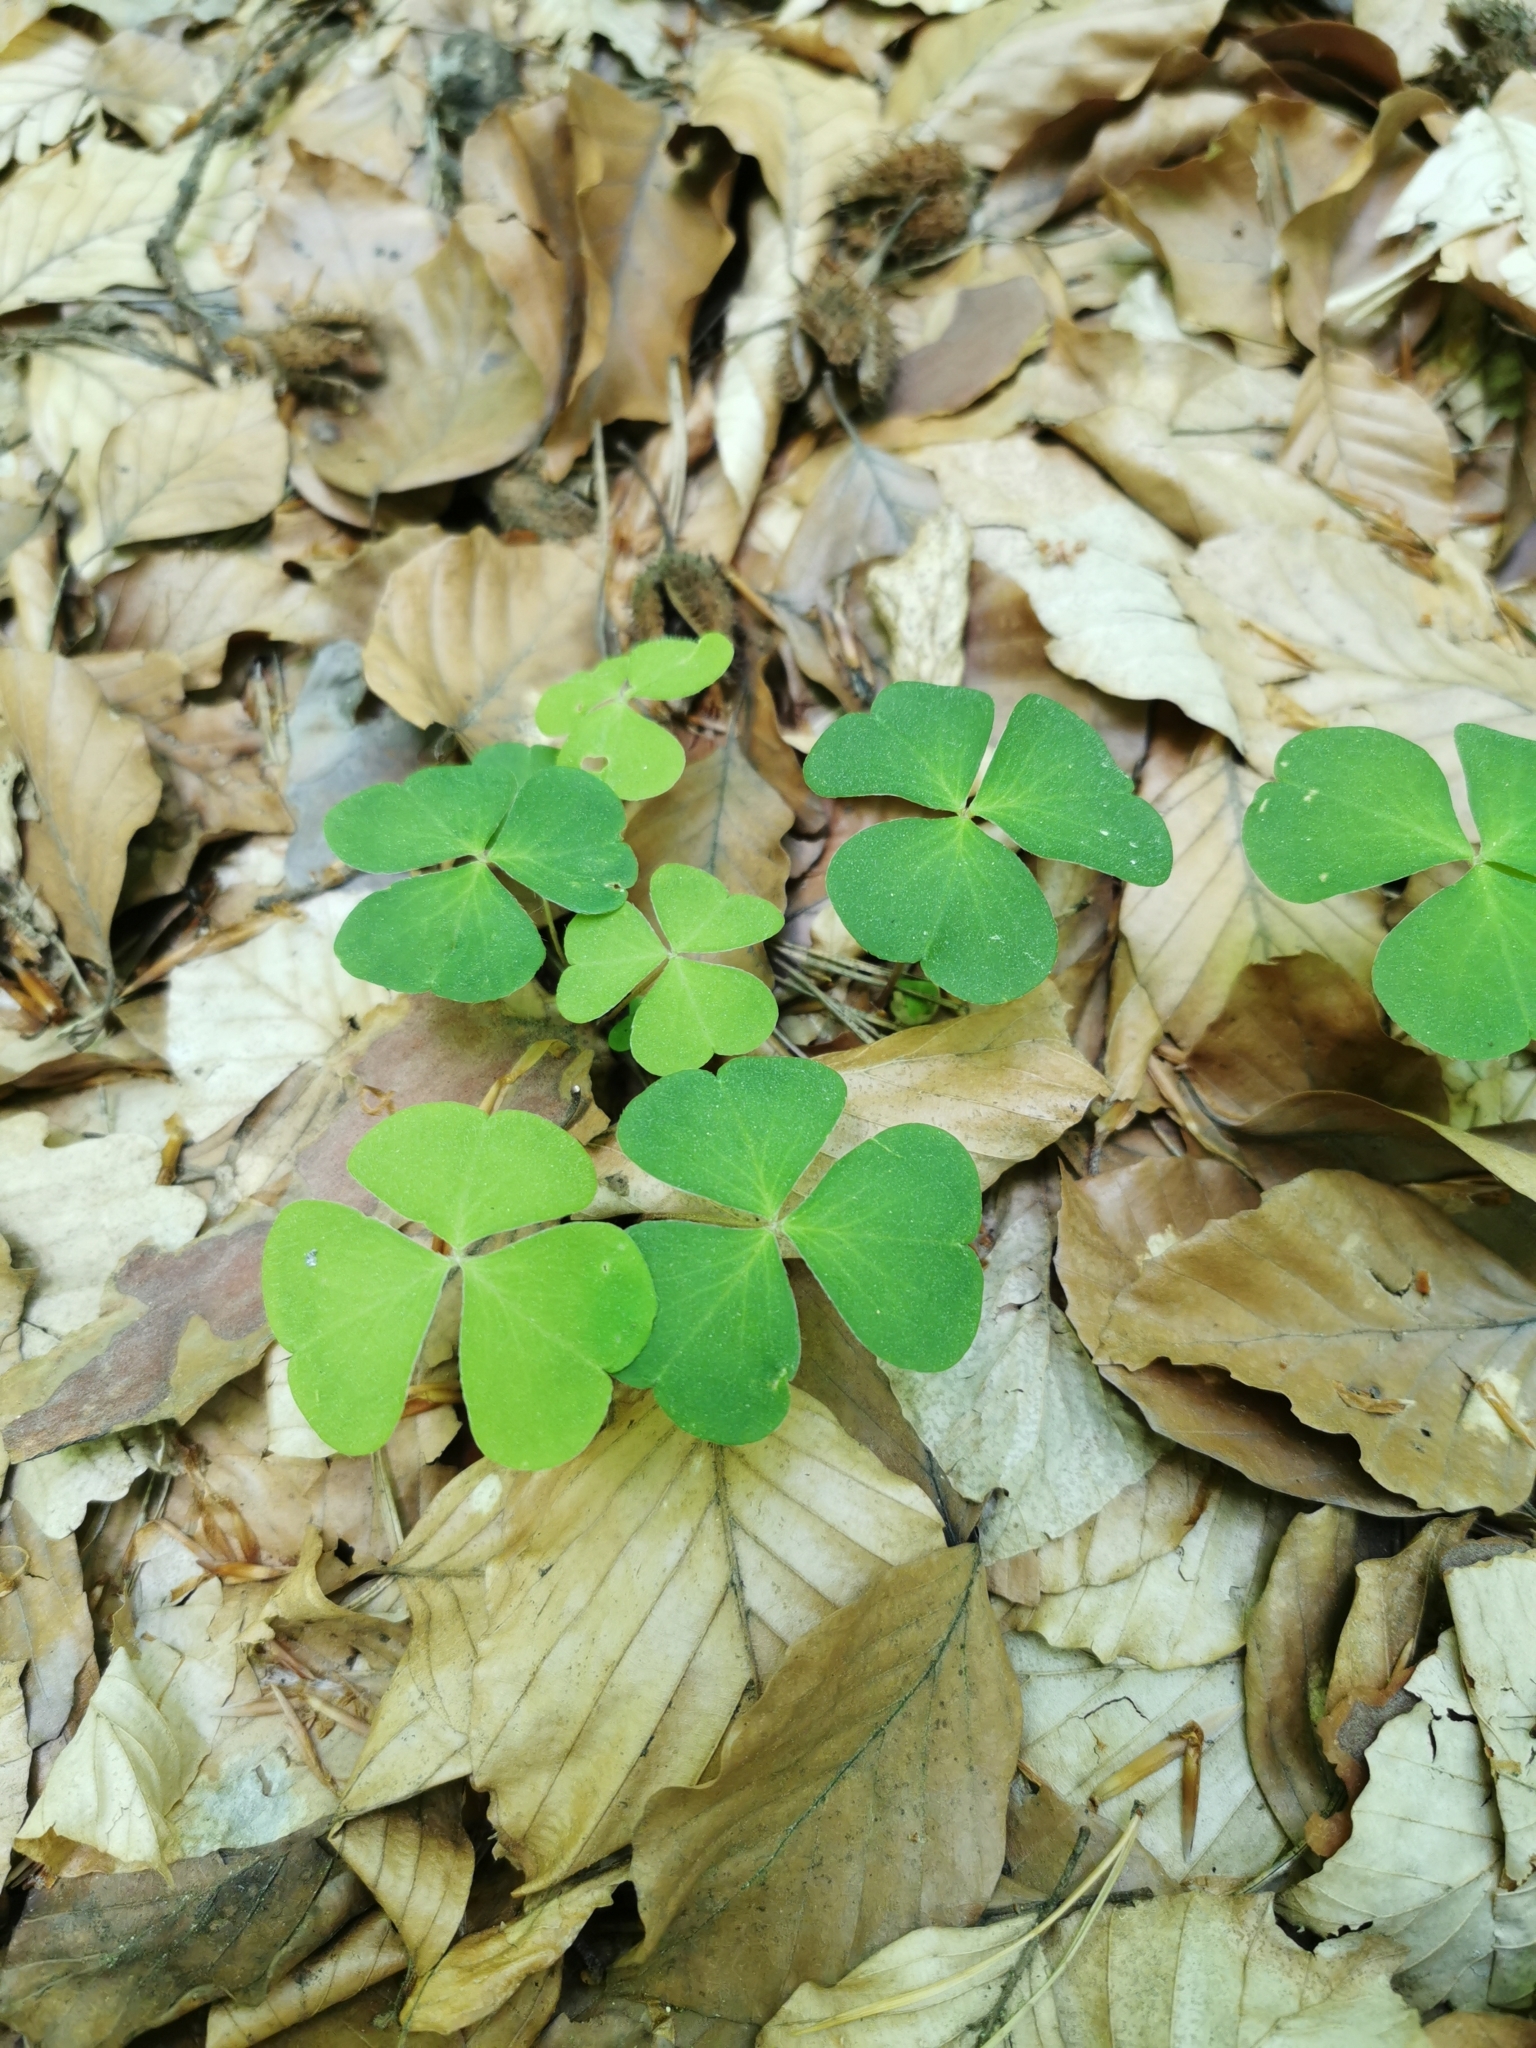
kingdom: Plantae
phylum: Tracheophyta
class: Magnoliopsida
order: Oxalidales
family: Oxalidaceae
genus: Oxalis
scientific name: Oxalis acetosella
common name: Wood-sorrel
